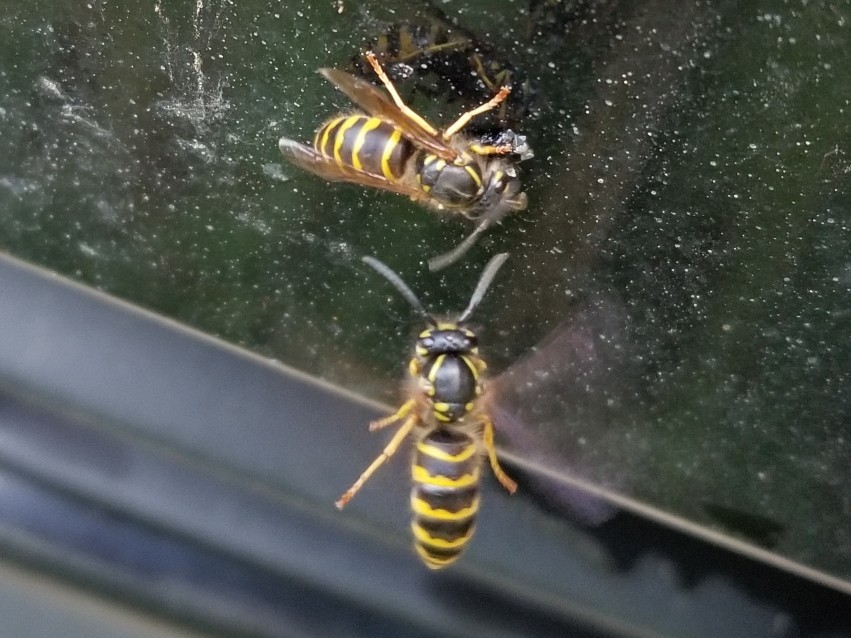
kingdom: Animalia
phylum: Arthropoda
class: Insecta
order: Hymenoptera
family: Vespidae
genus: Vespula
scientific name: Vespula alascensis
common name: Alaska yellowjacket
